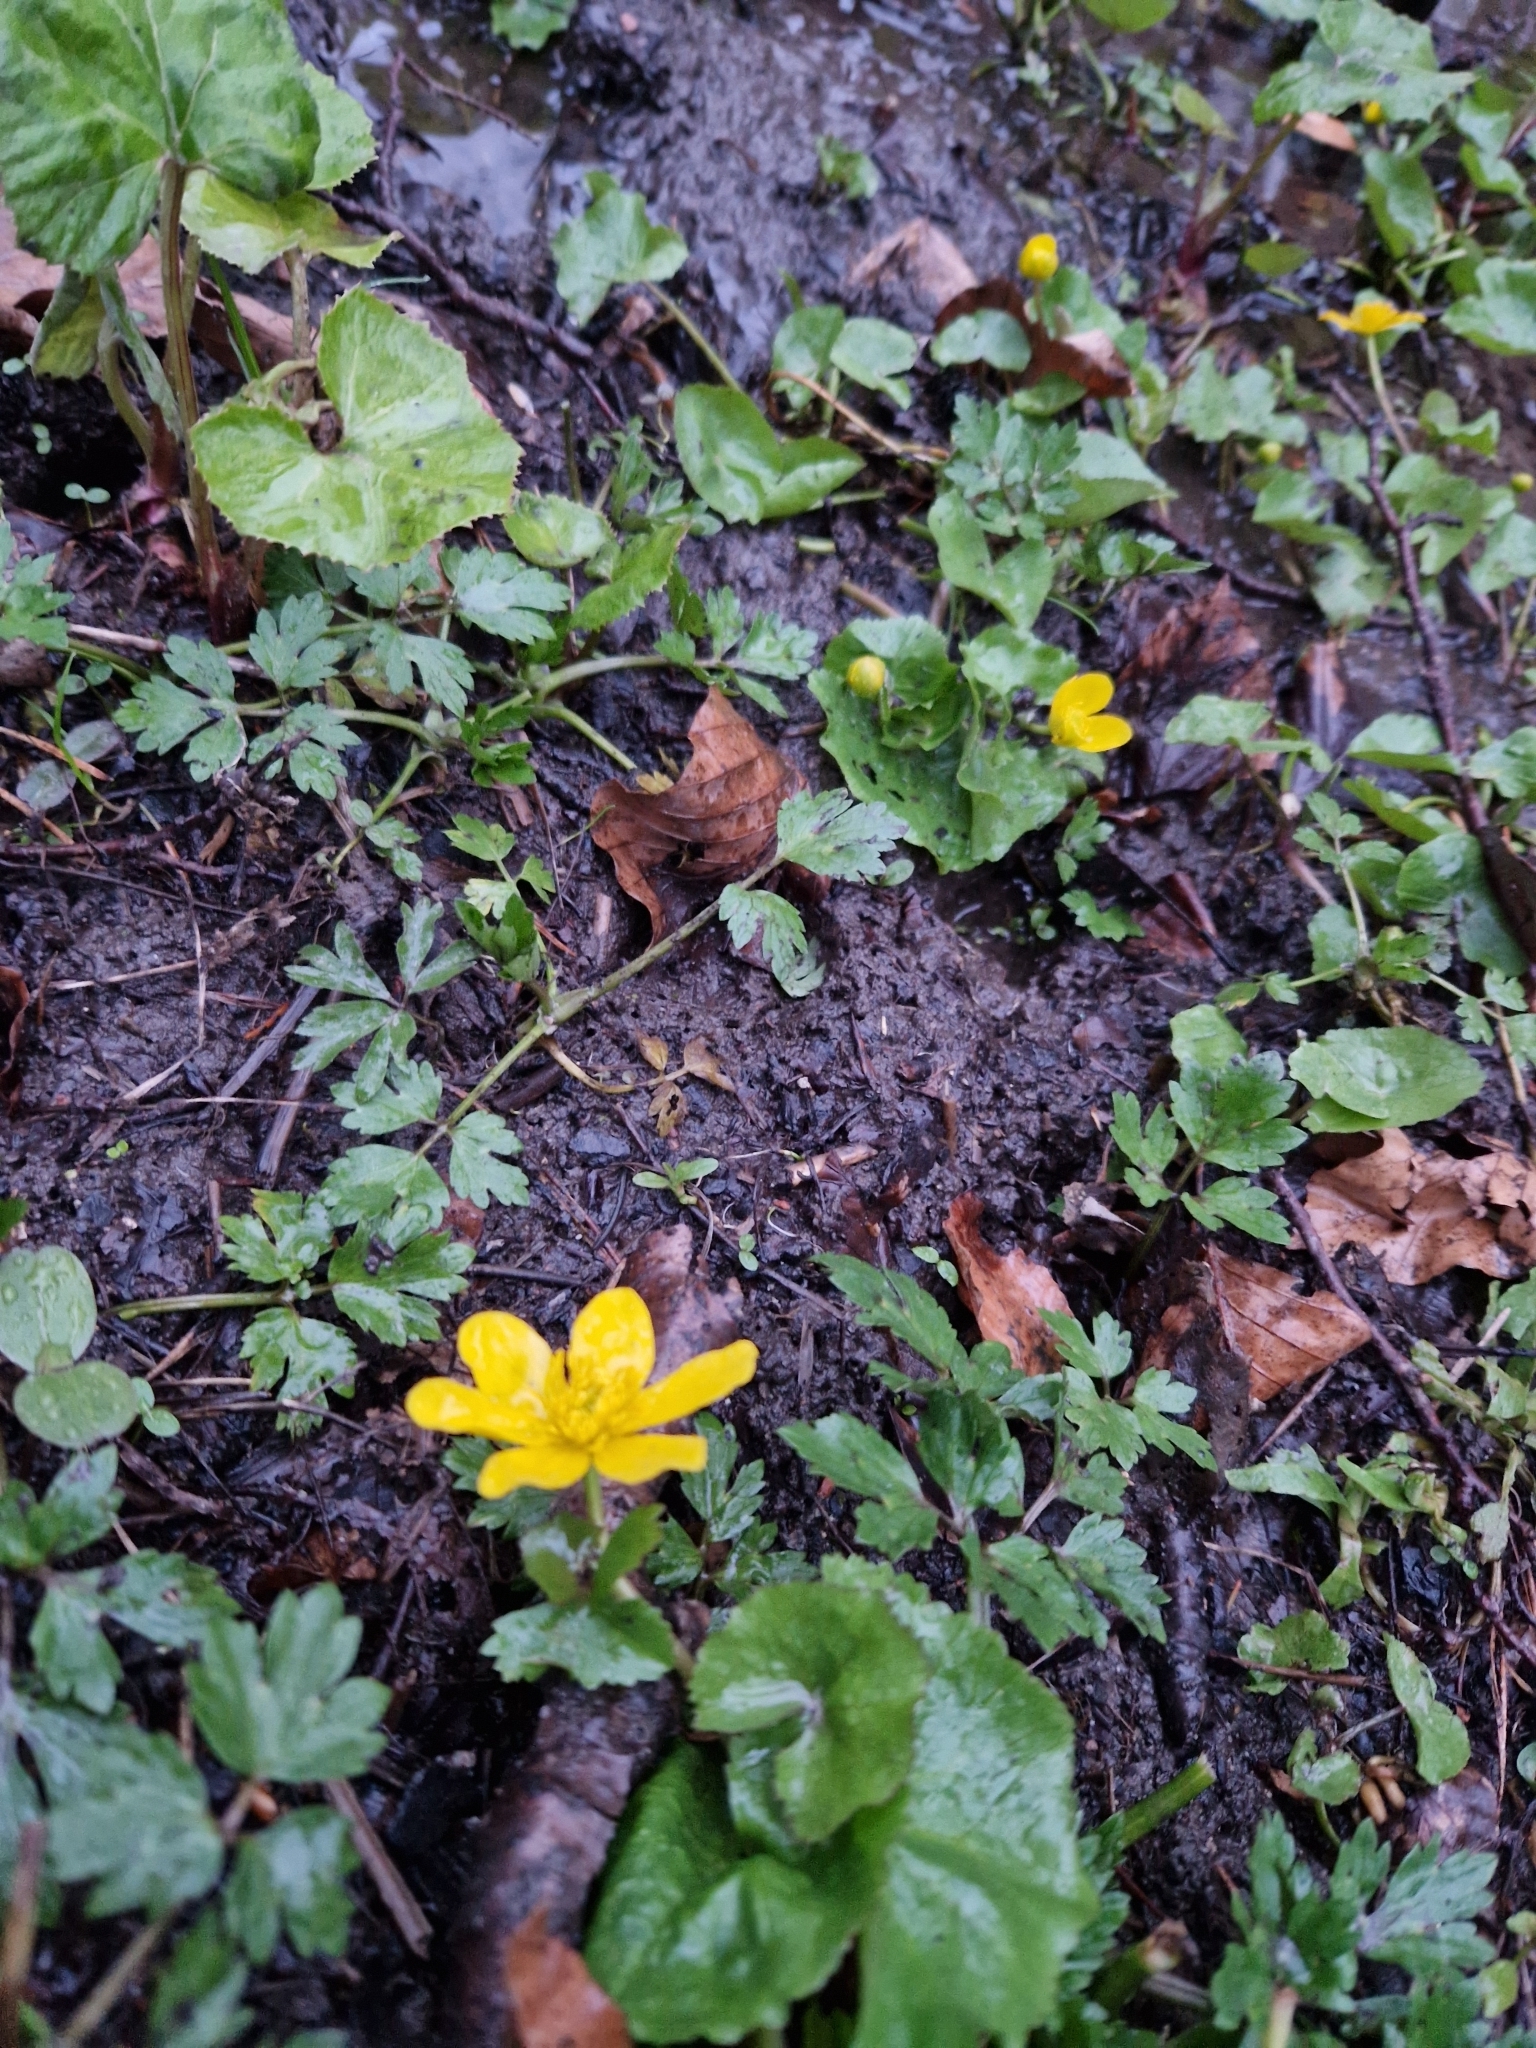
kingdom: Plantae
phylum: Tracheophyta
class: Magnoliopsida
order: Ranunculales
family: Ranunculaceae
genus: Caltha
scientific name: Caltha palustris
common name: Marsh marigold
